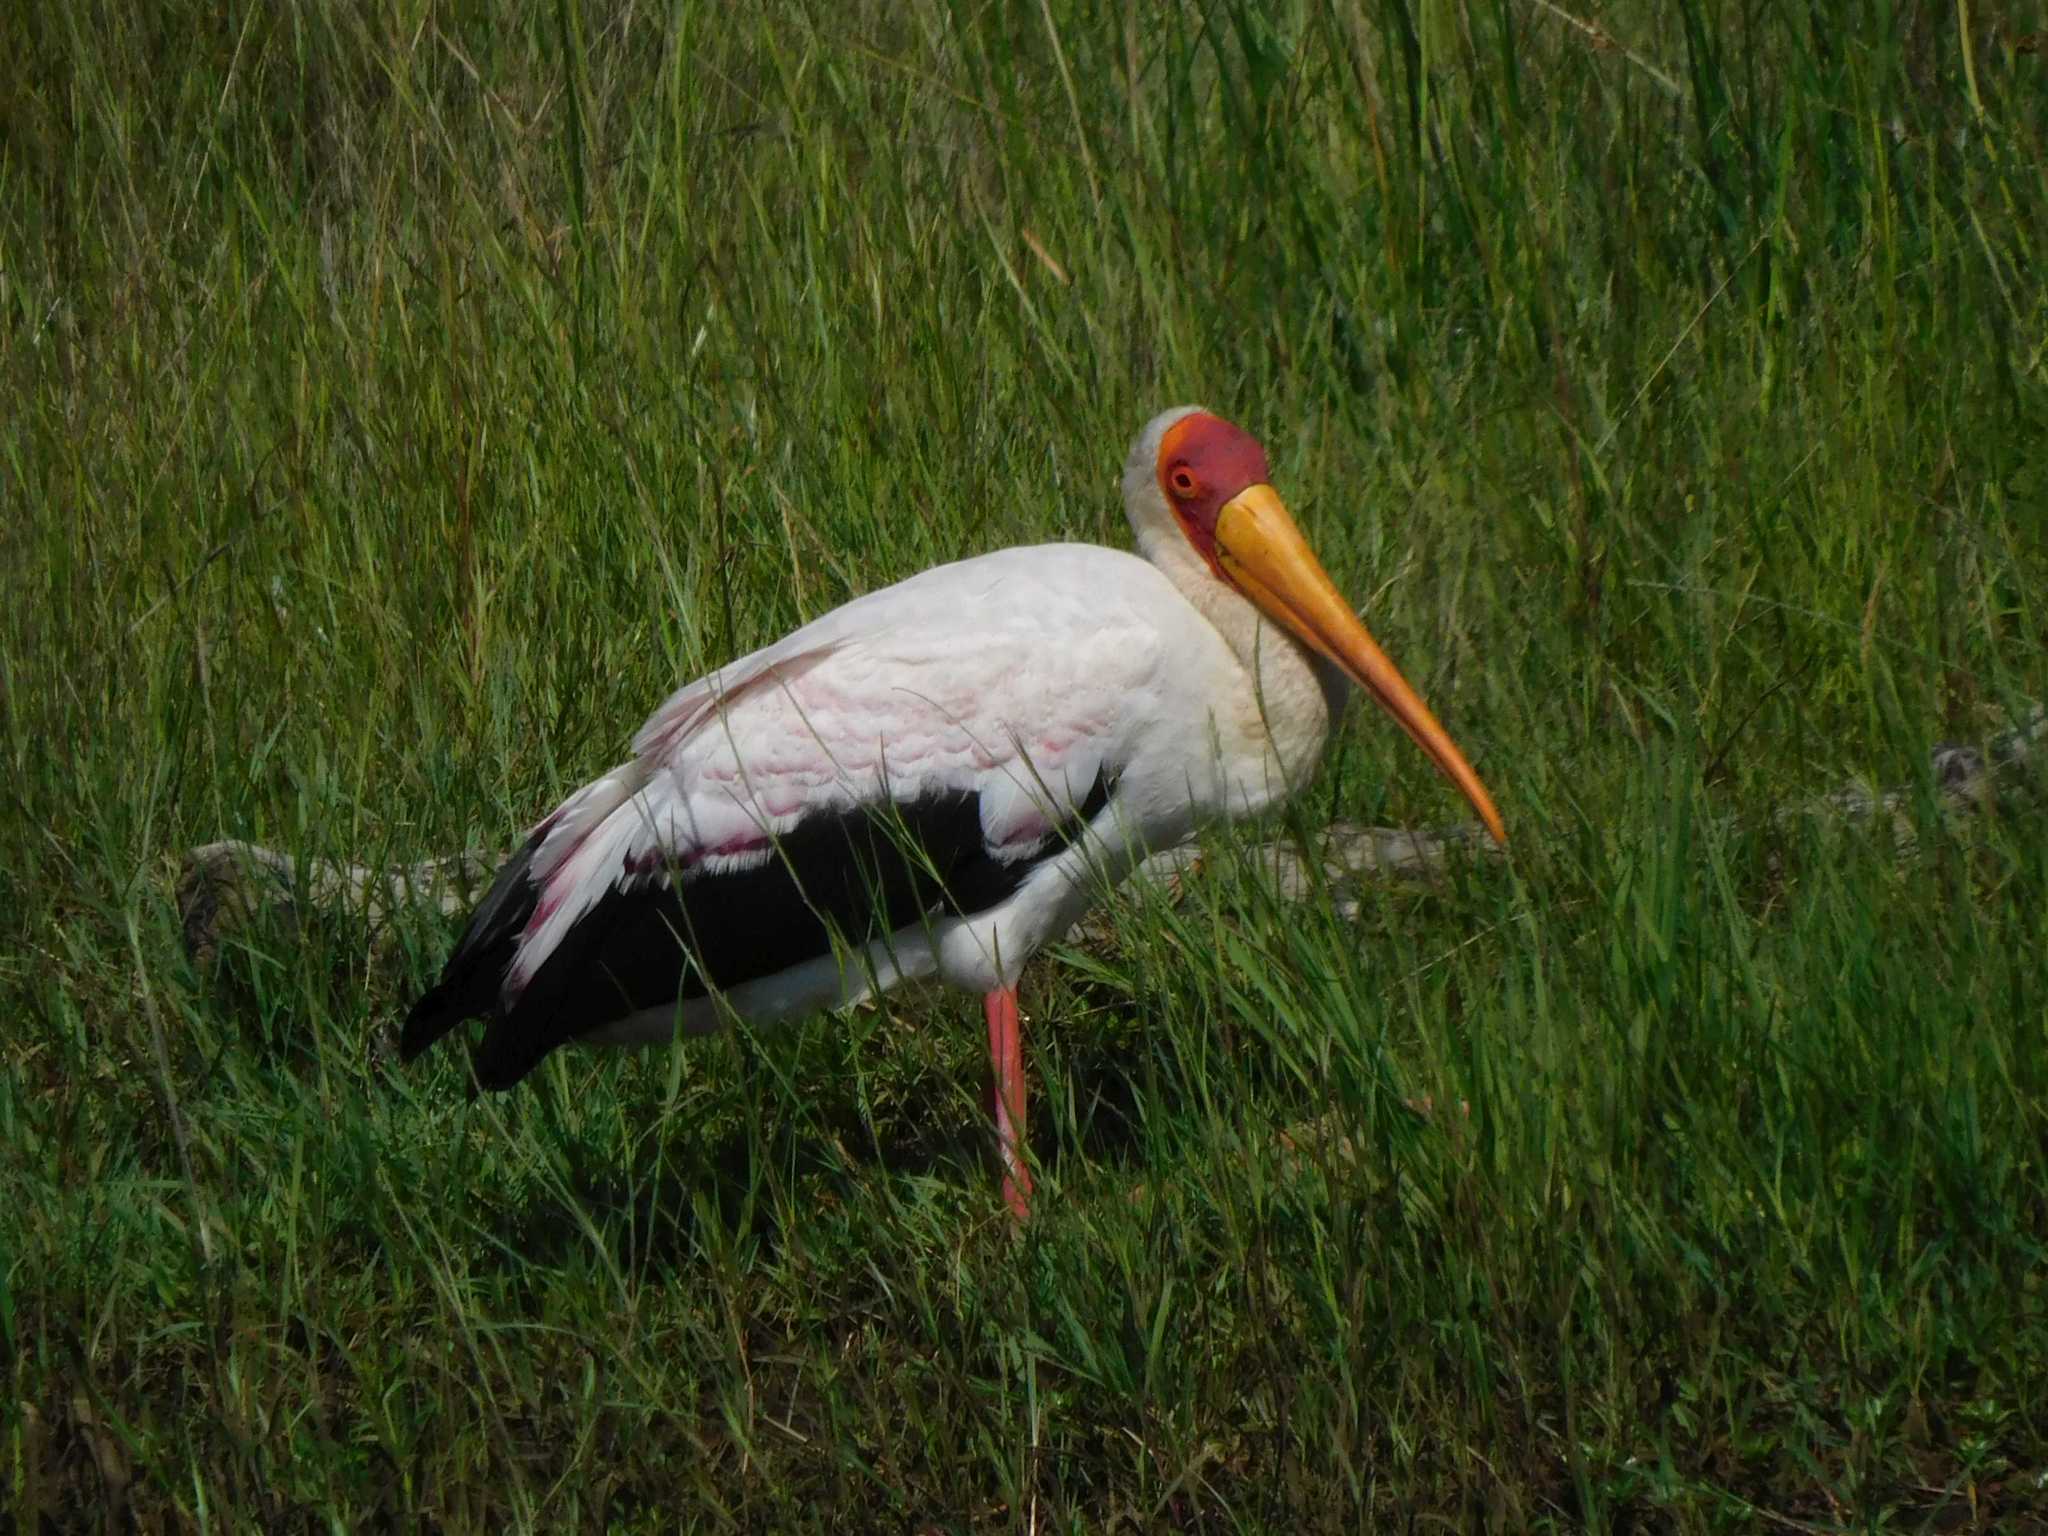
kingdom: Animalia
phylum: Chordata
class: Aves
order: Ciconiiformes
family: Ciconiidae
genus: Mycteria
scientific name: Mycteria ibis
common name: Yellow-billed stork
